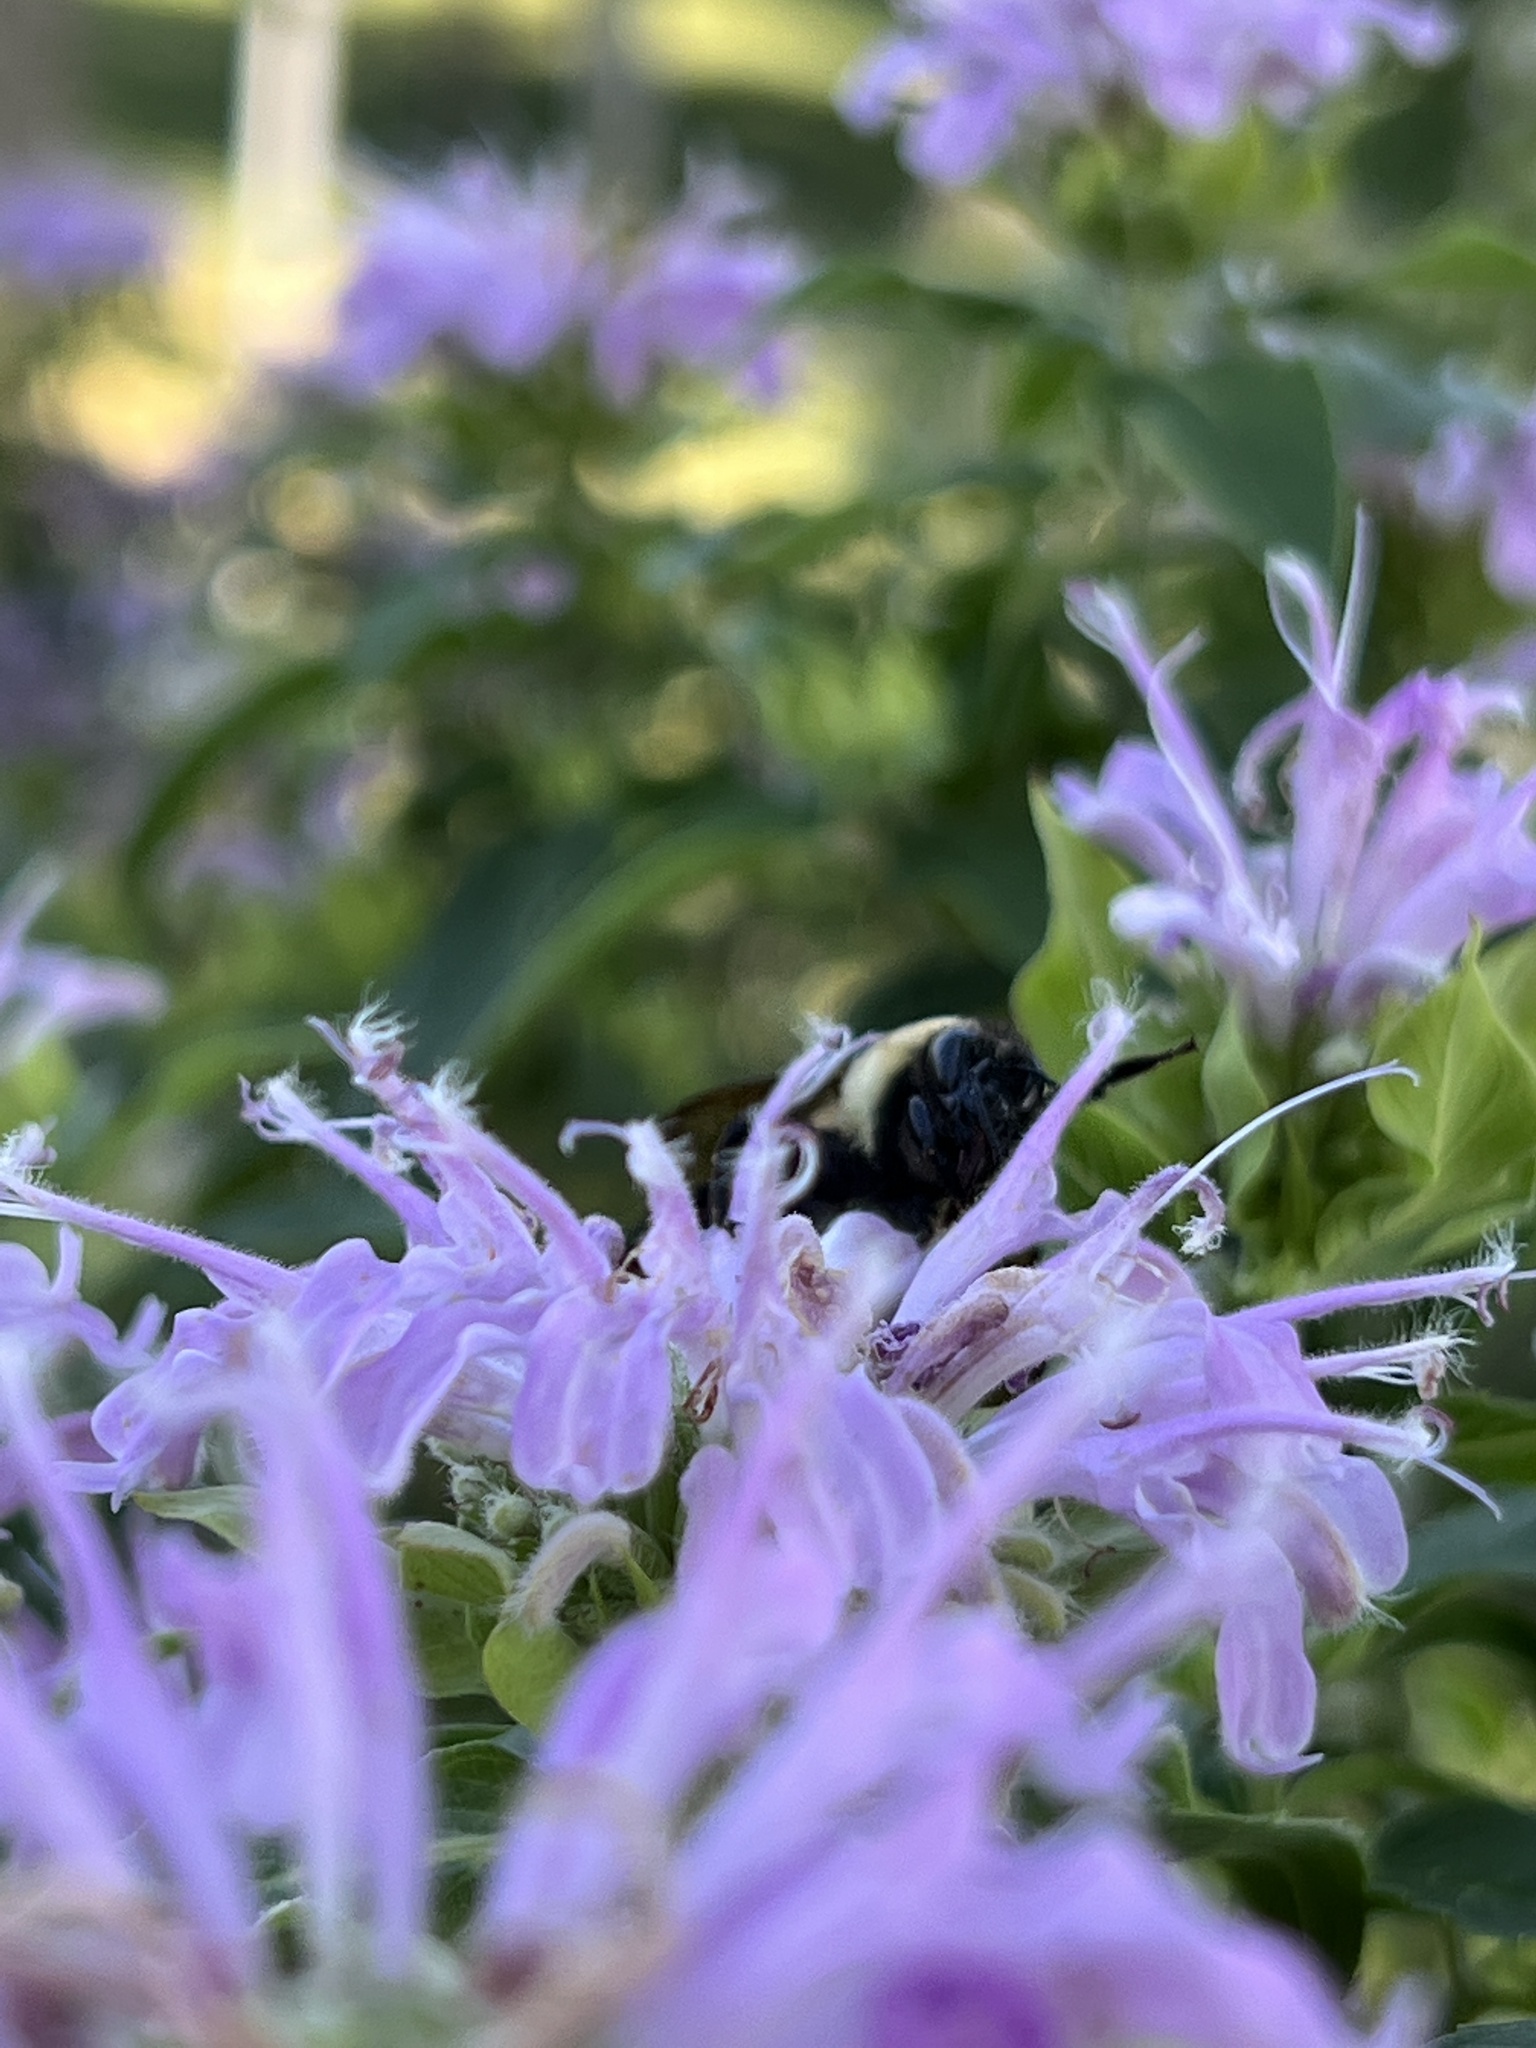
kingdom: Animalia
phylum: Arthropoda
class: Insecta
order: Hymenoptera
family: Apidae
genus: Bombus
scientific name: Bombus griseocollis
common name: Brown-belted bumble bee
